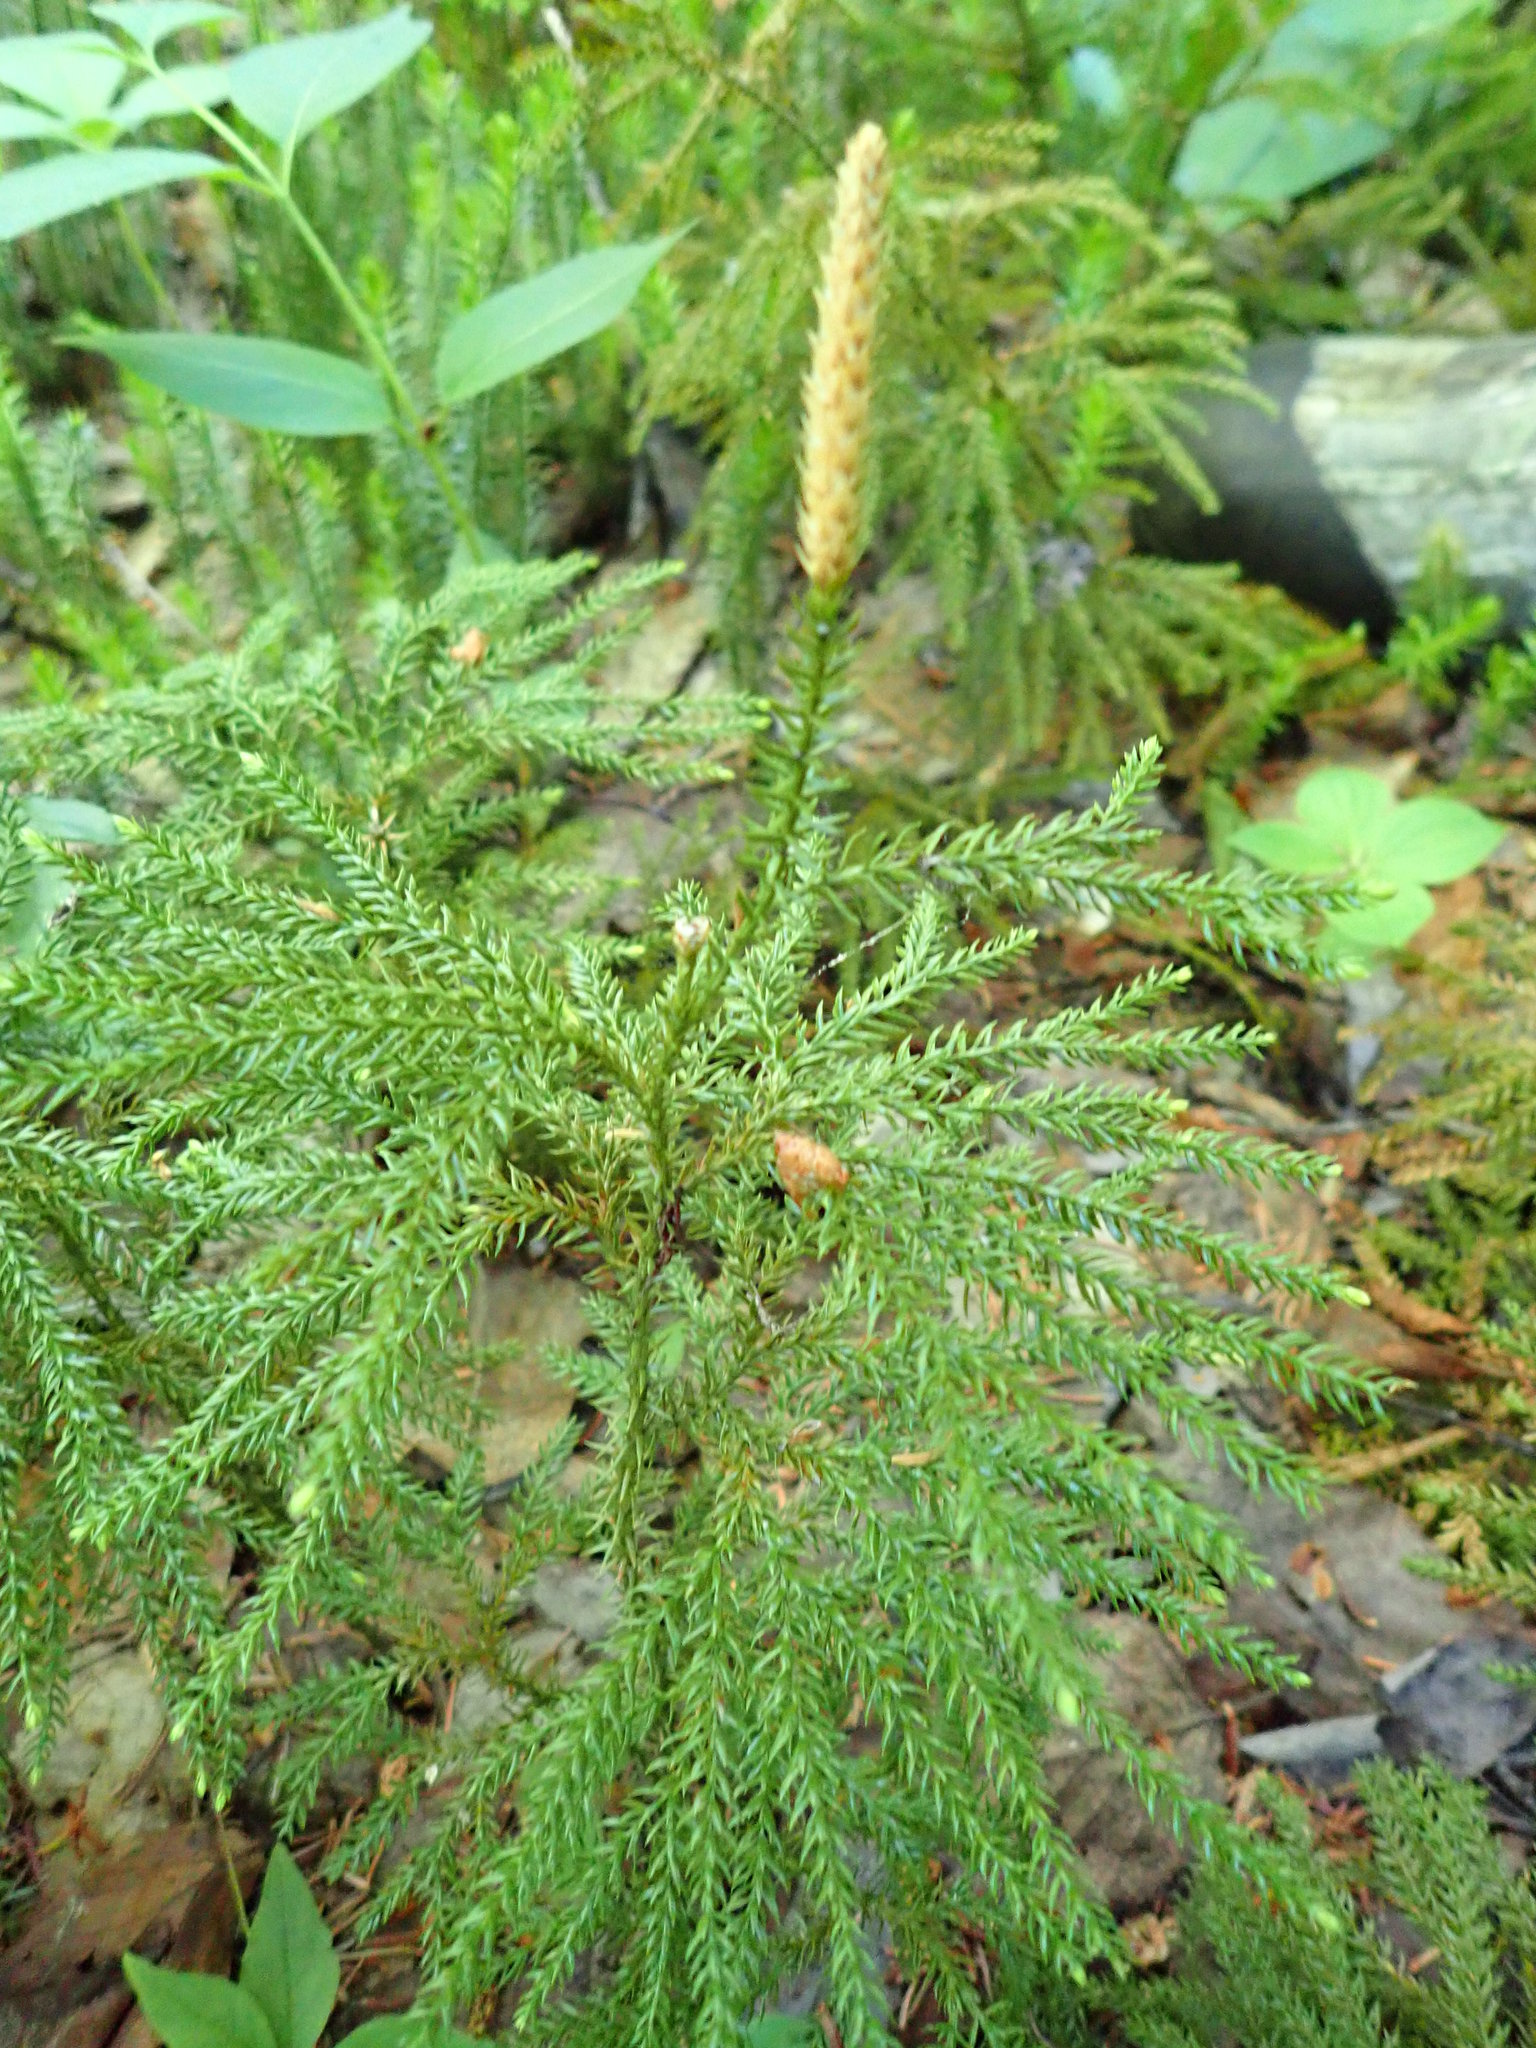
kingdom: Plantae
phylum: Tracheophyta
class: Lycopodiopsida
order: Lycopodiales
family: Lycopodiaceae
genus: Dendrolycopodium
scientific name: Dendrolycopodium dendroideum
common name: Northern tree-clubmoss
